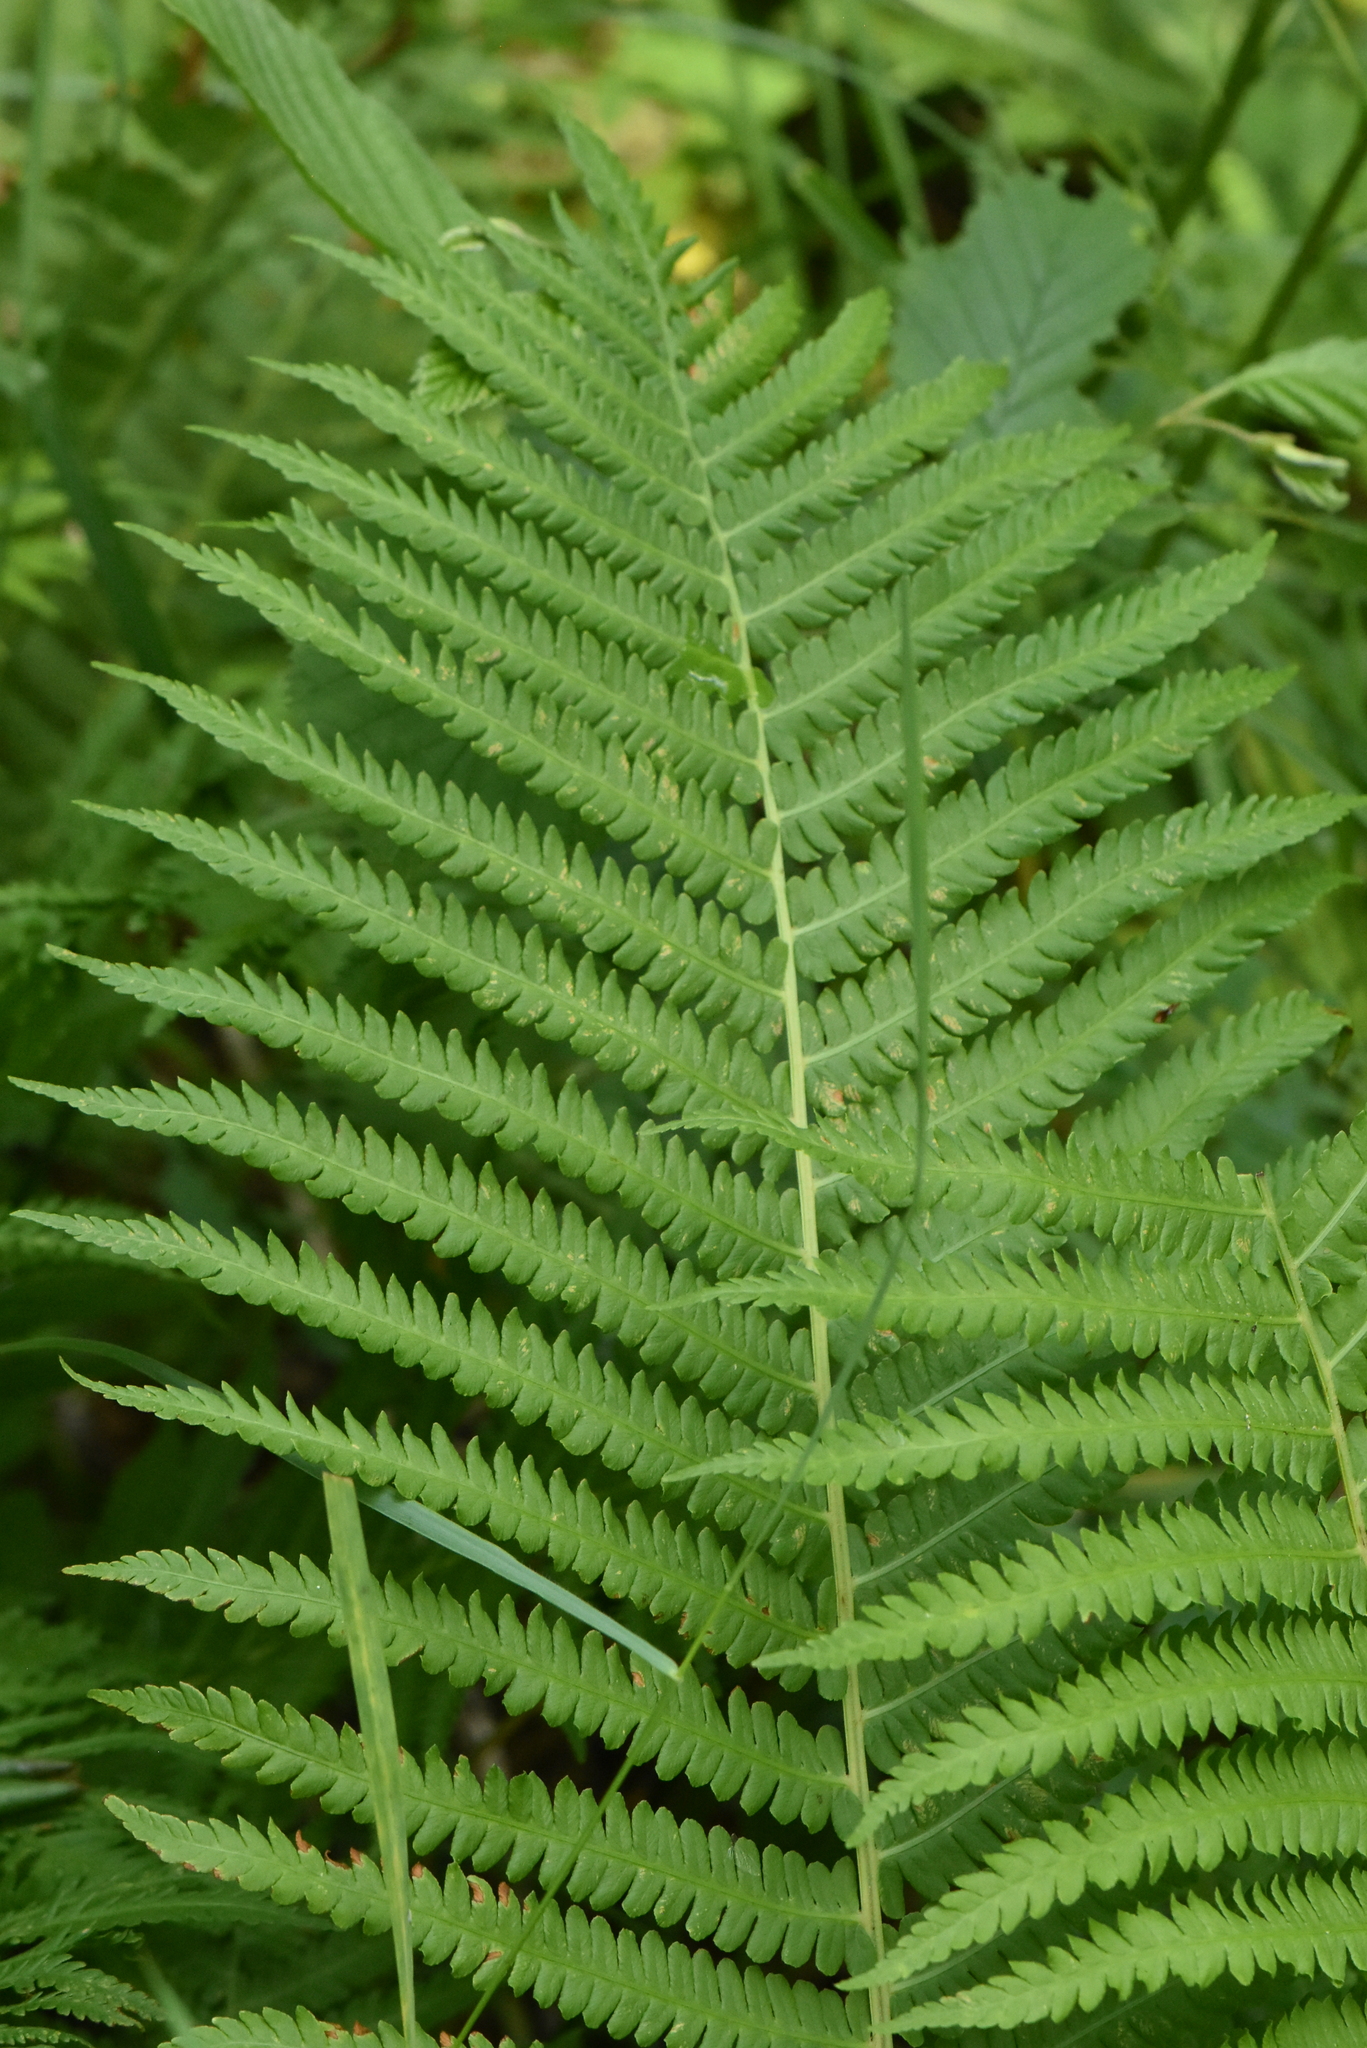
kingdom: Plantae
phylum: Tracheophyta
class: Polypodiopsida
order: Polypodiales
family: Onocleaceae
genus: Matteuccia
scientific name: Matteuccia struthiopteris
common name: Ostrich fern
